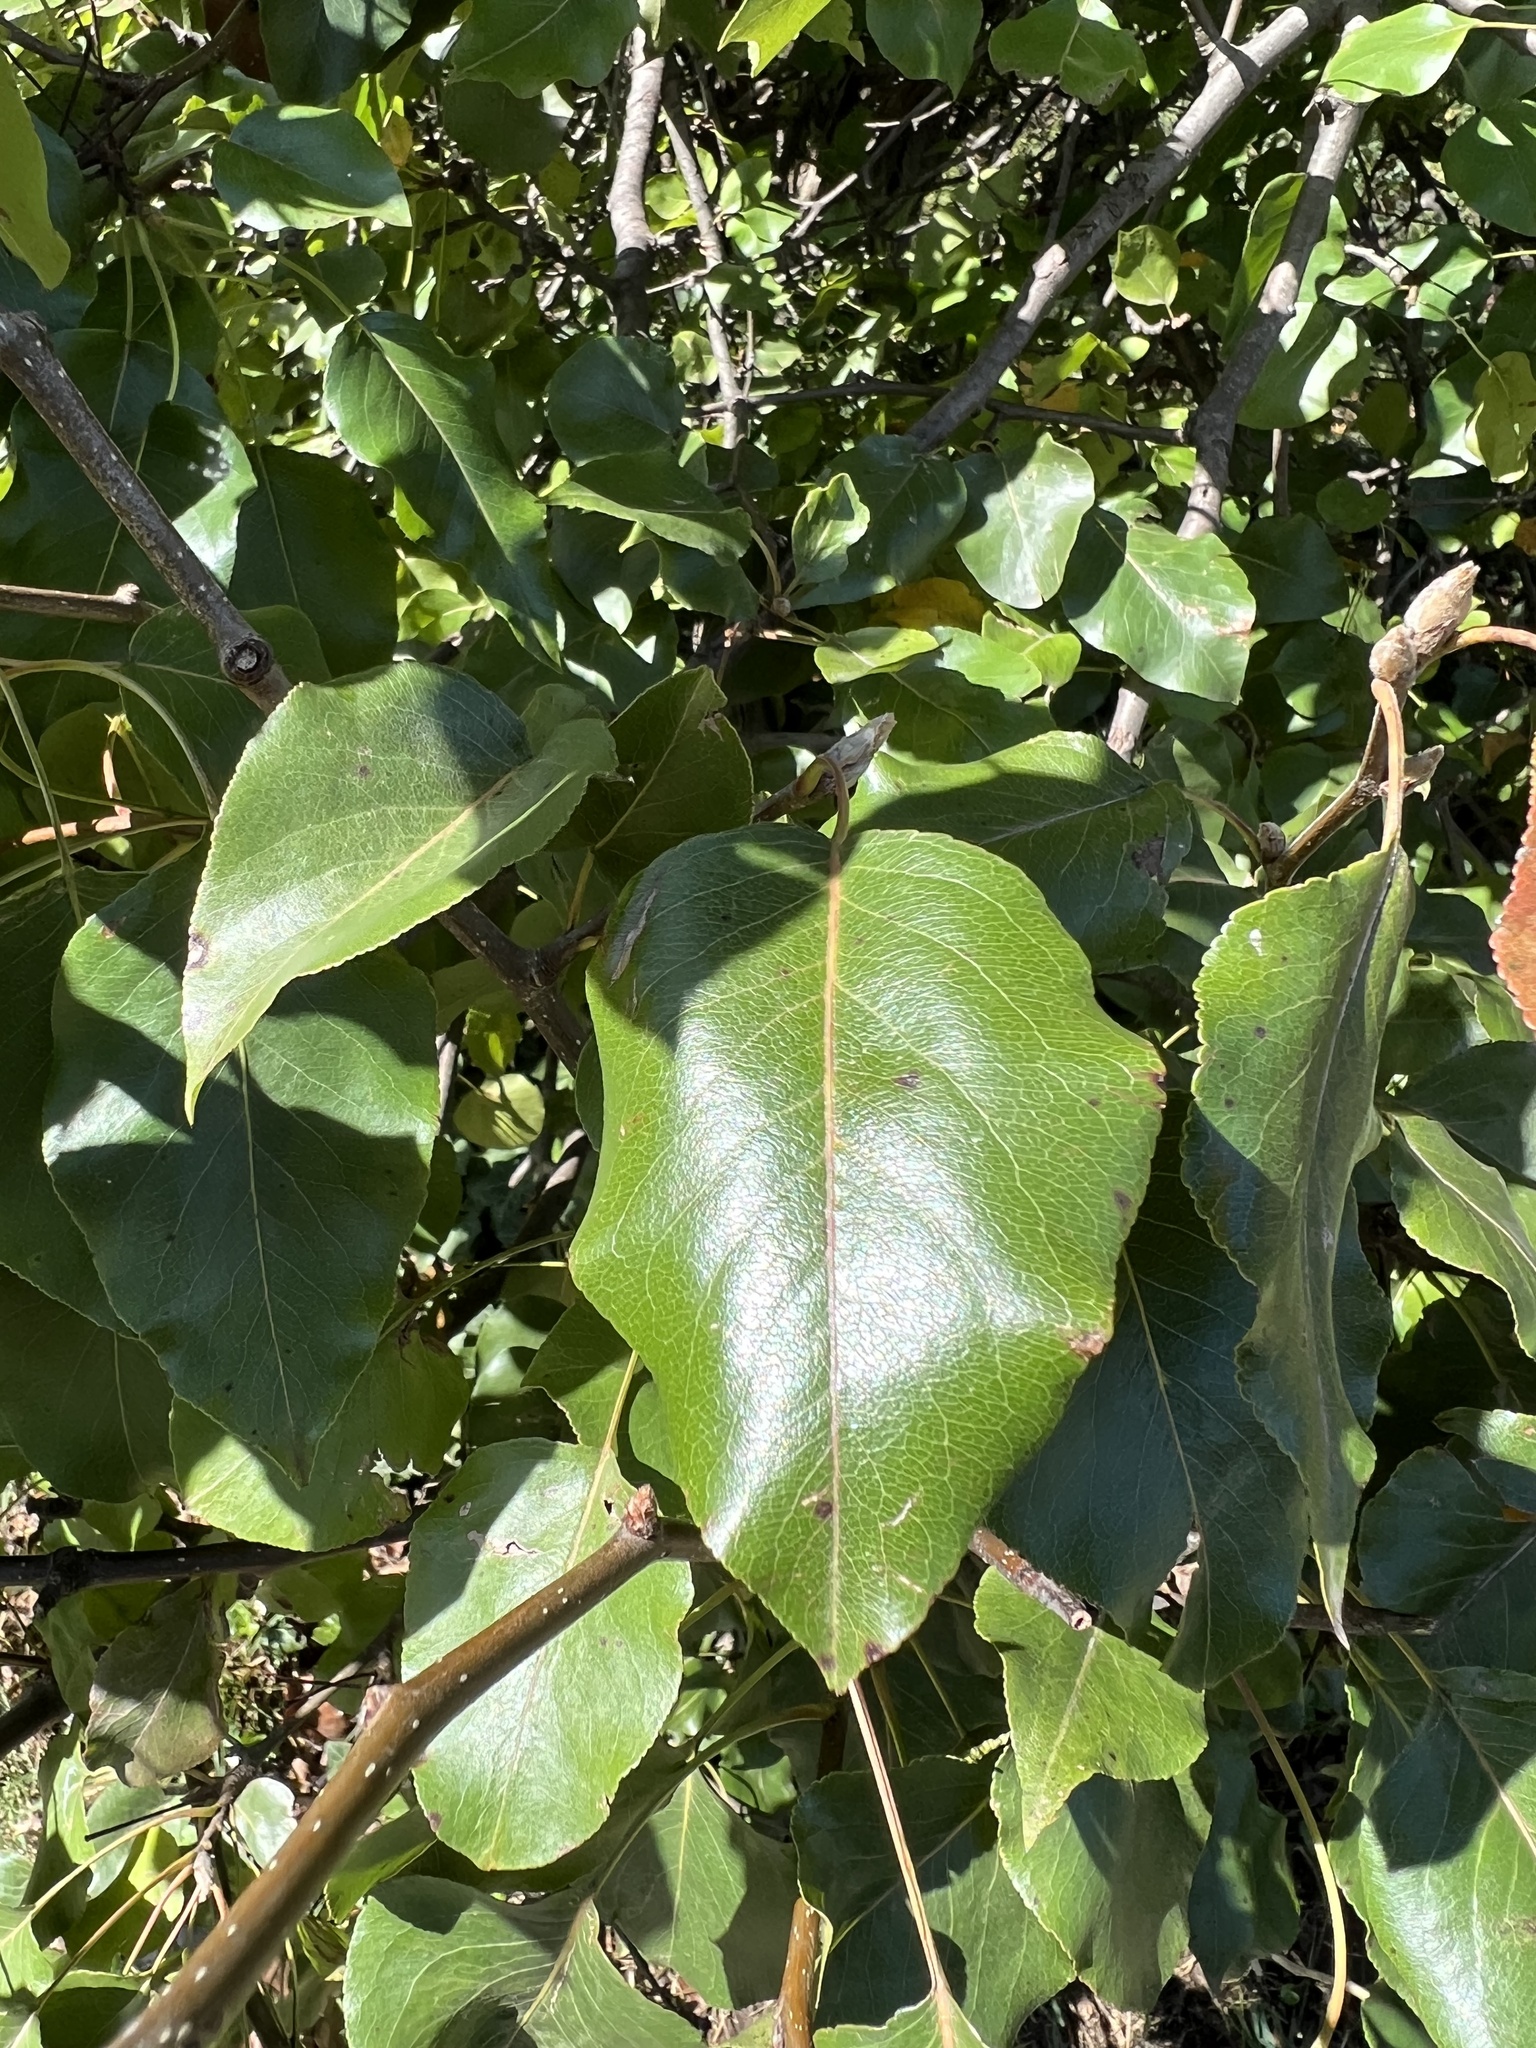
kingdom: Plantae
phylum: Tracheophyta
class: Magnoliopsida
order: Rosales
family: Rosaceae
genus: Pyrus
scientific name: Pyrus calleryana
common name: Callery pear
